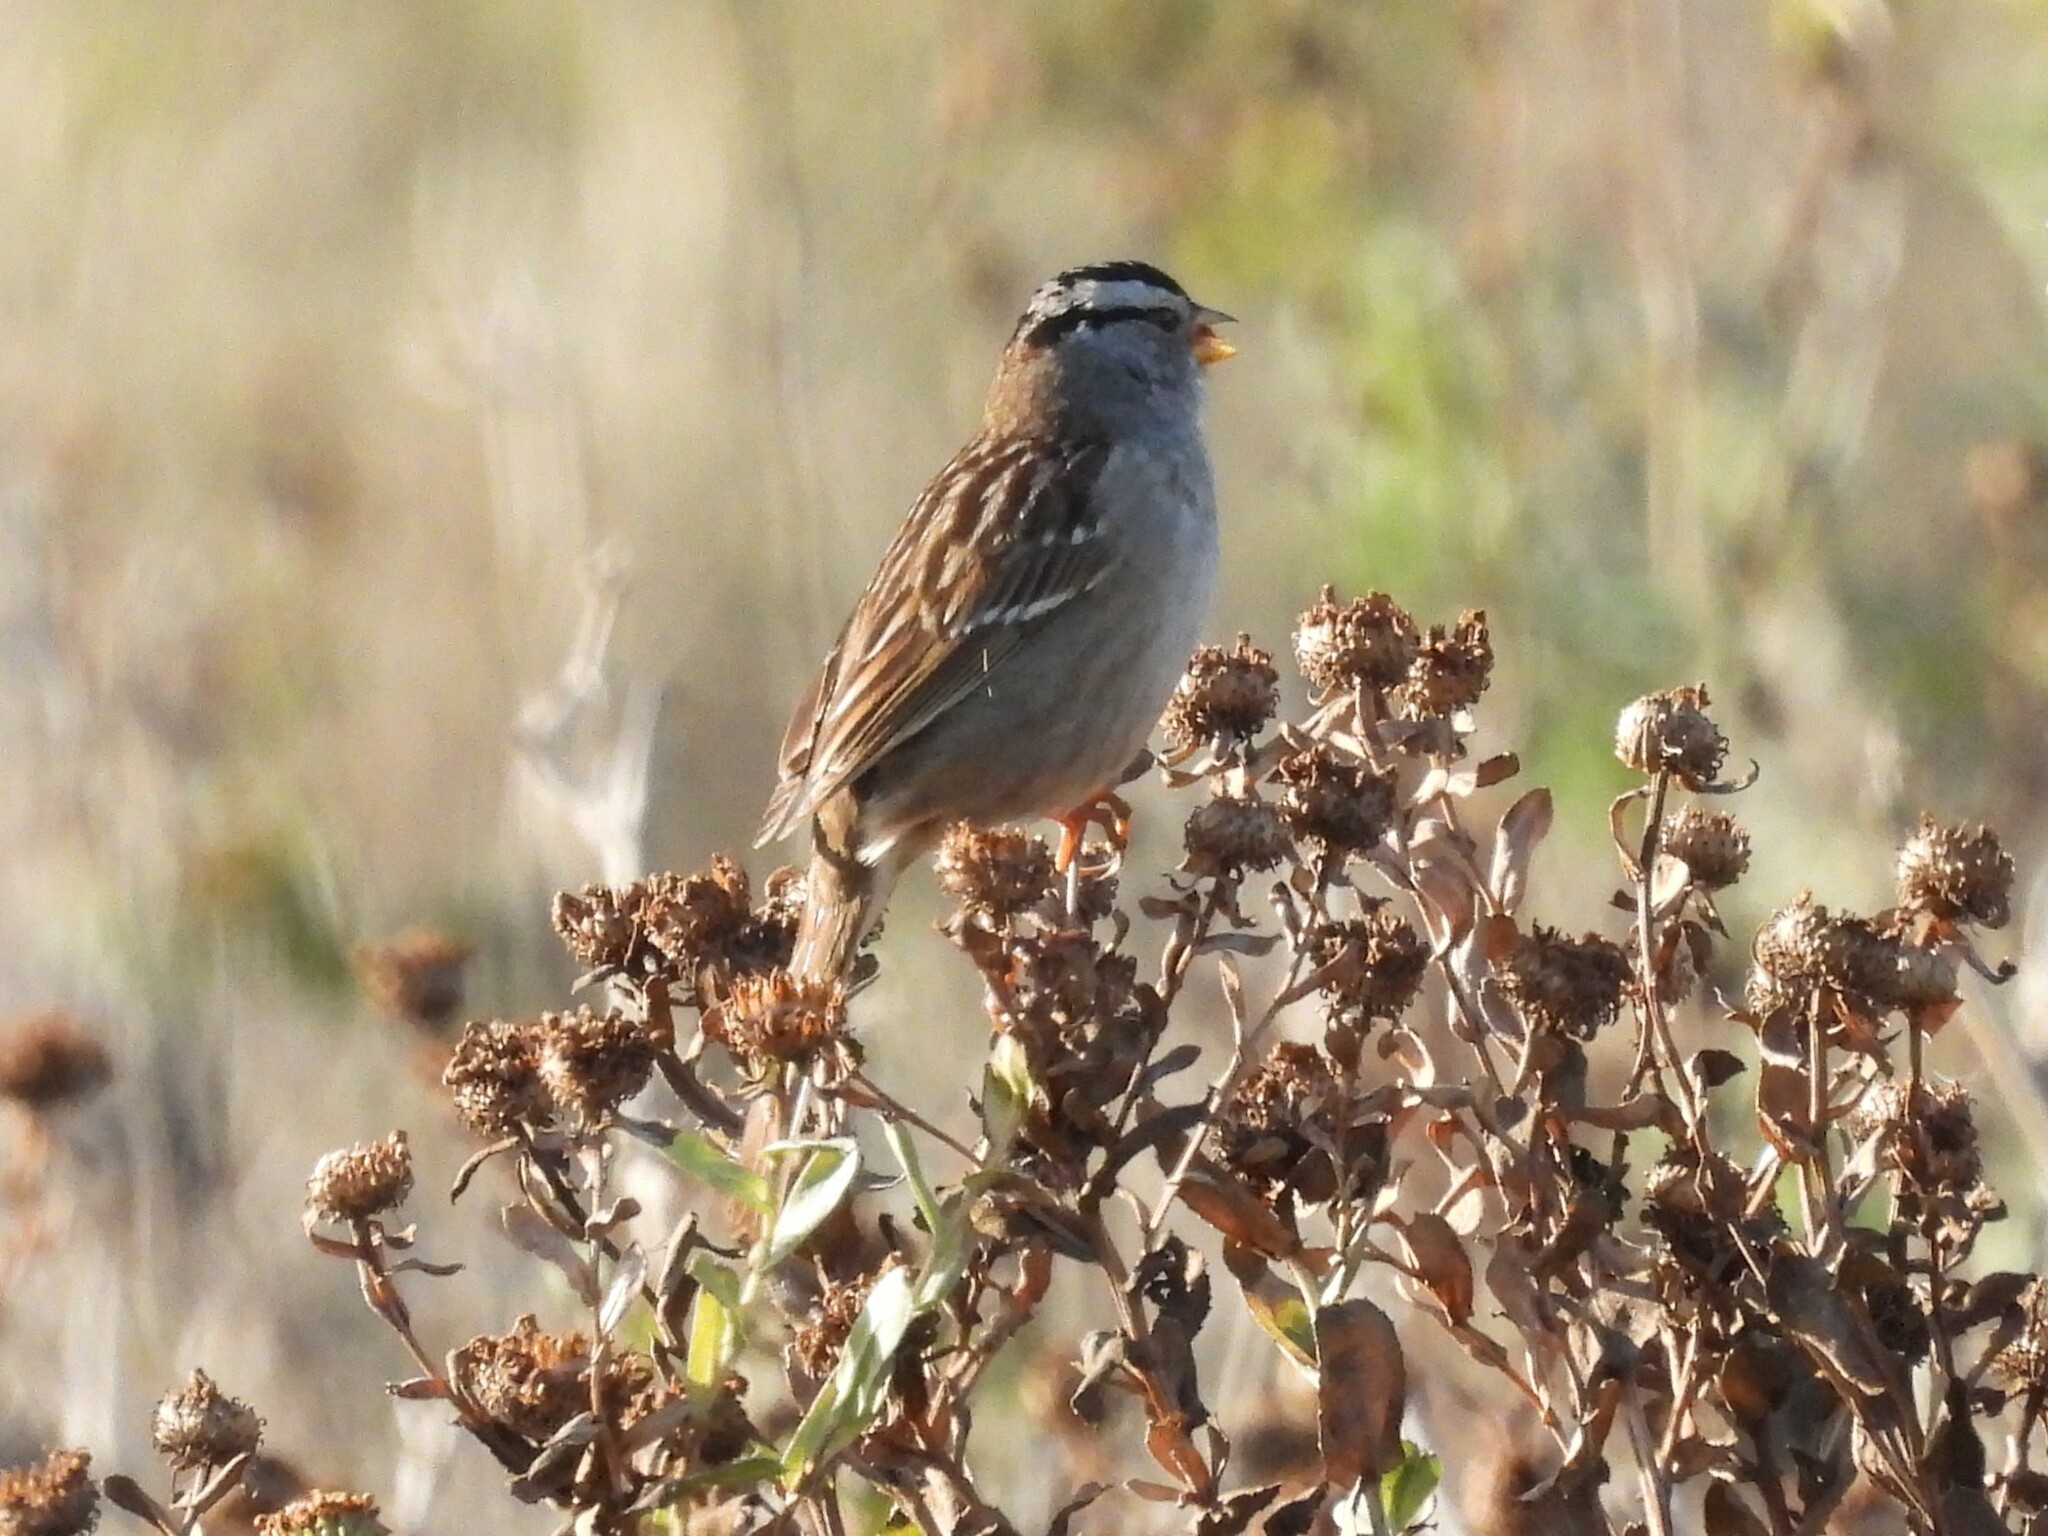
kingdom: Animalia
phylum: Chordata
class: Aves
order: Passeriformes
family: Passerellidae
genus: Zonotrichia
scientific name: Zonotrichia leucophrys
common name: White-crowned sparrow
